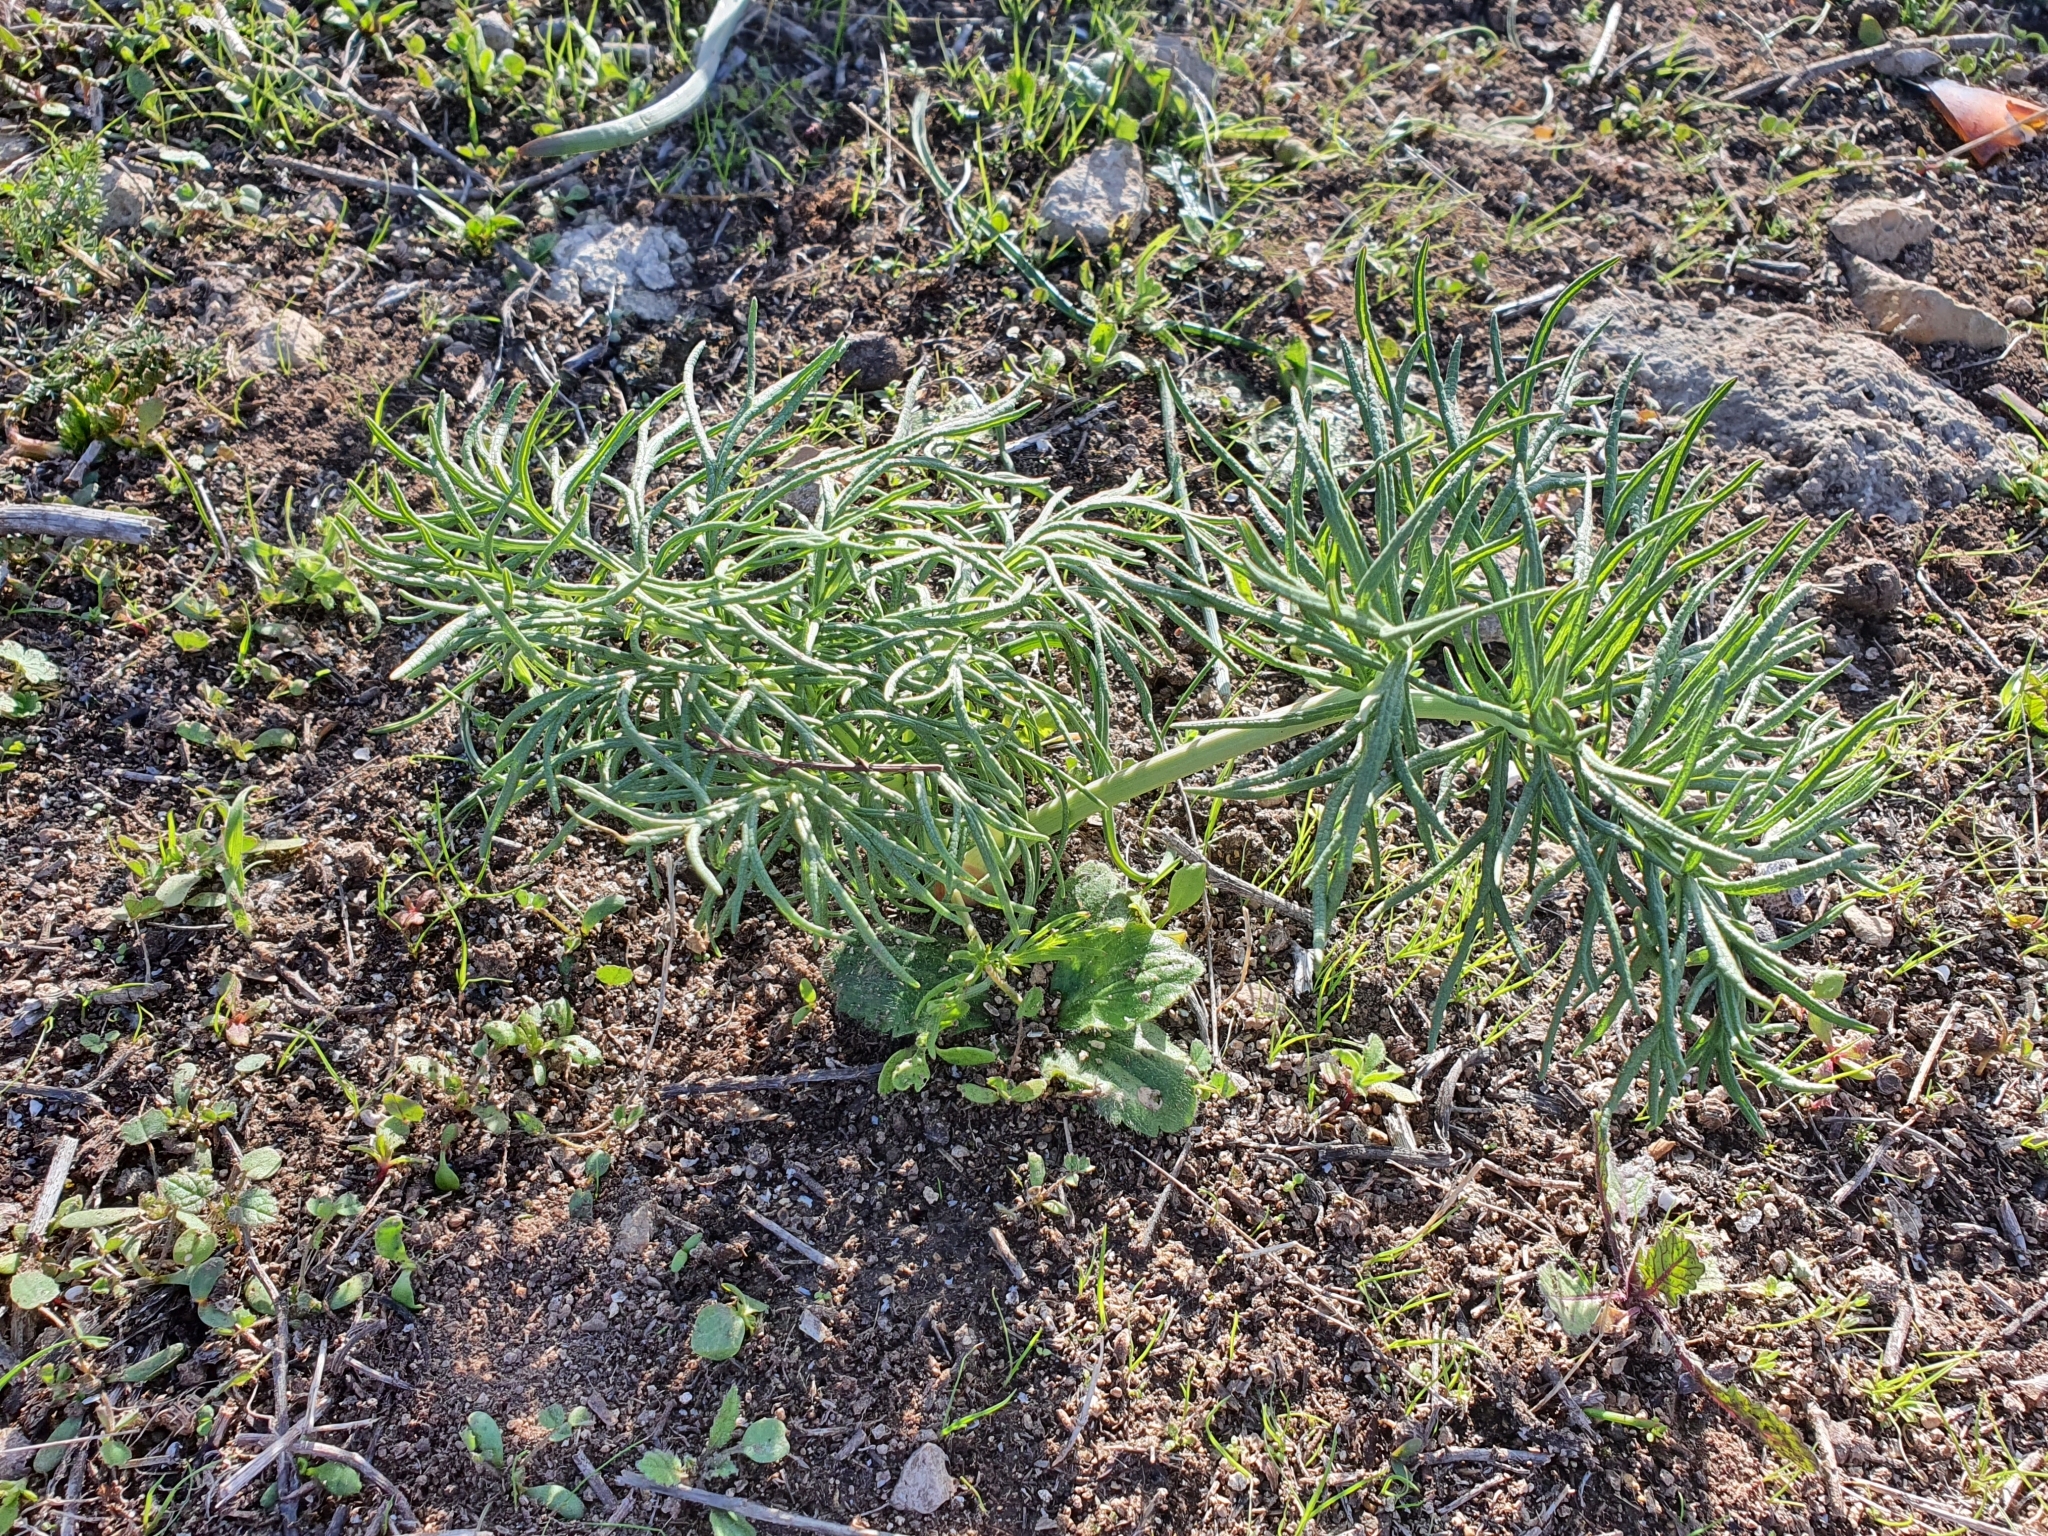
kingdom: Plantae
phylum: Tracheophyta
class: Magnoliopsida
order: Apiales
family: Apiaceae
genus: Thapsia
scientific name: Thapsia garganica
